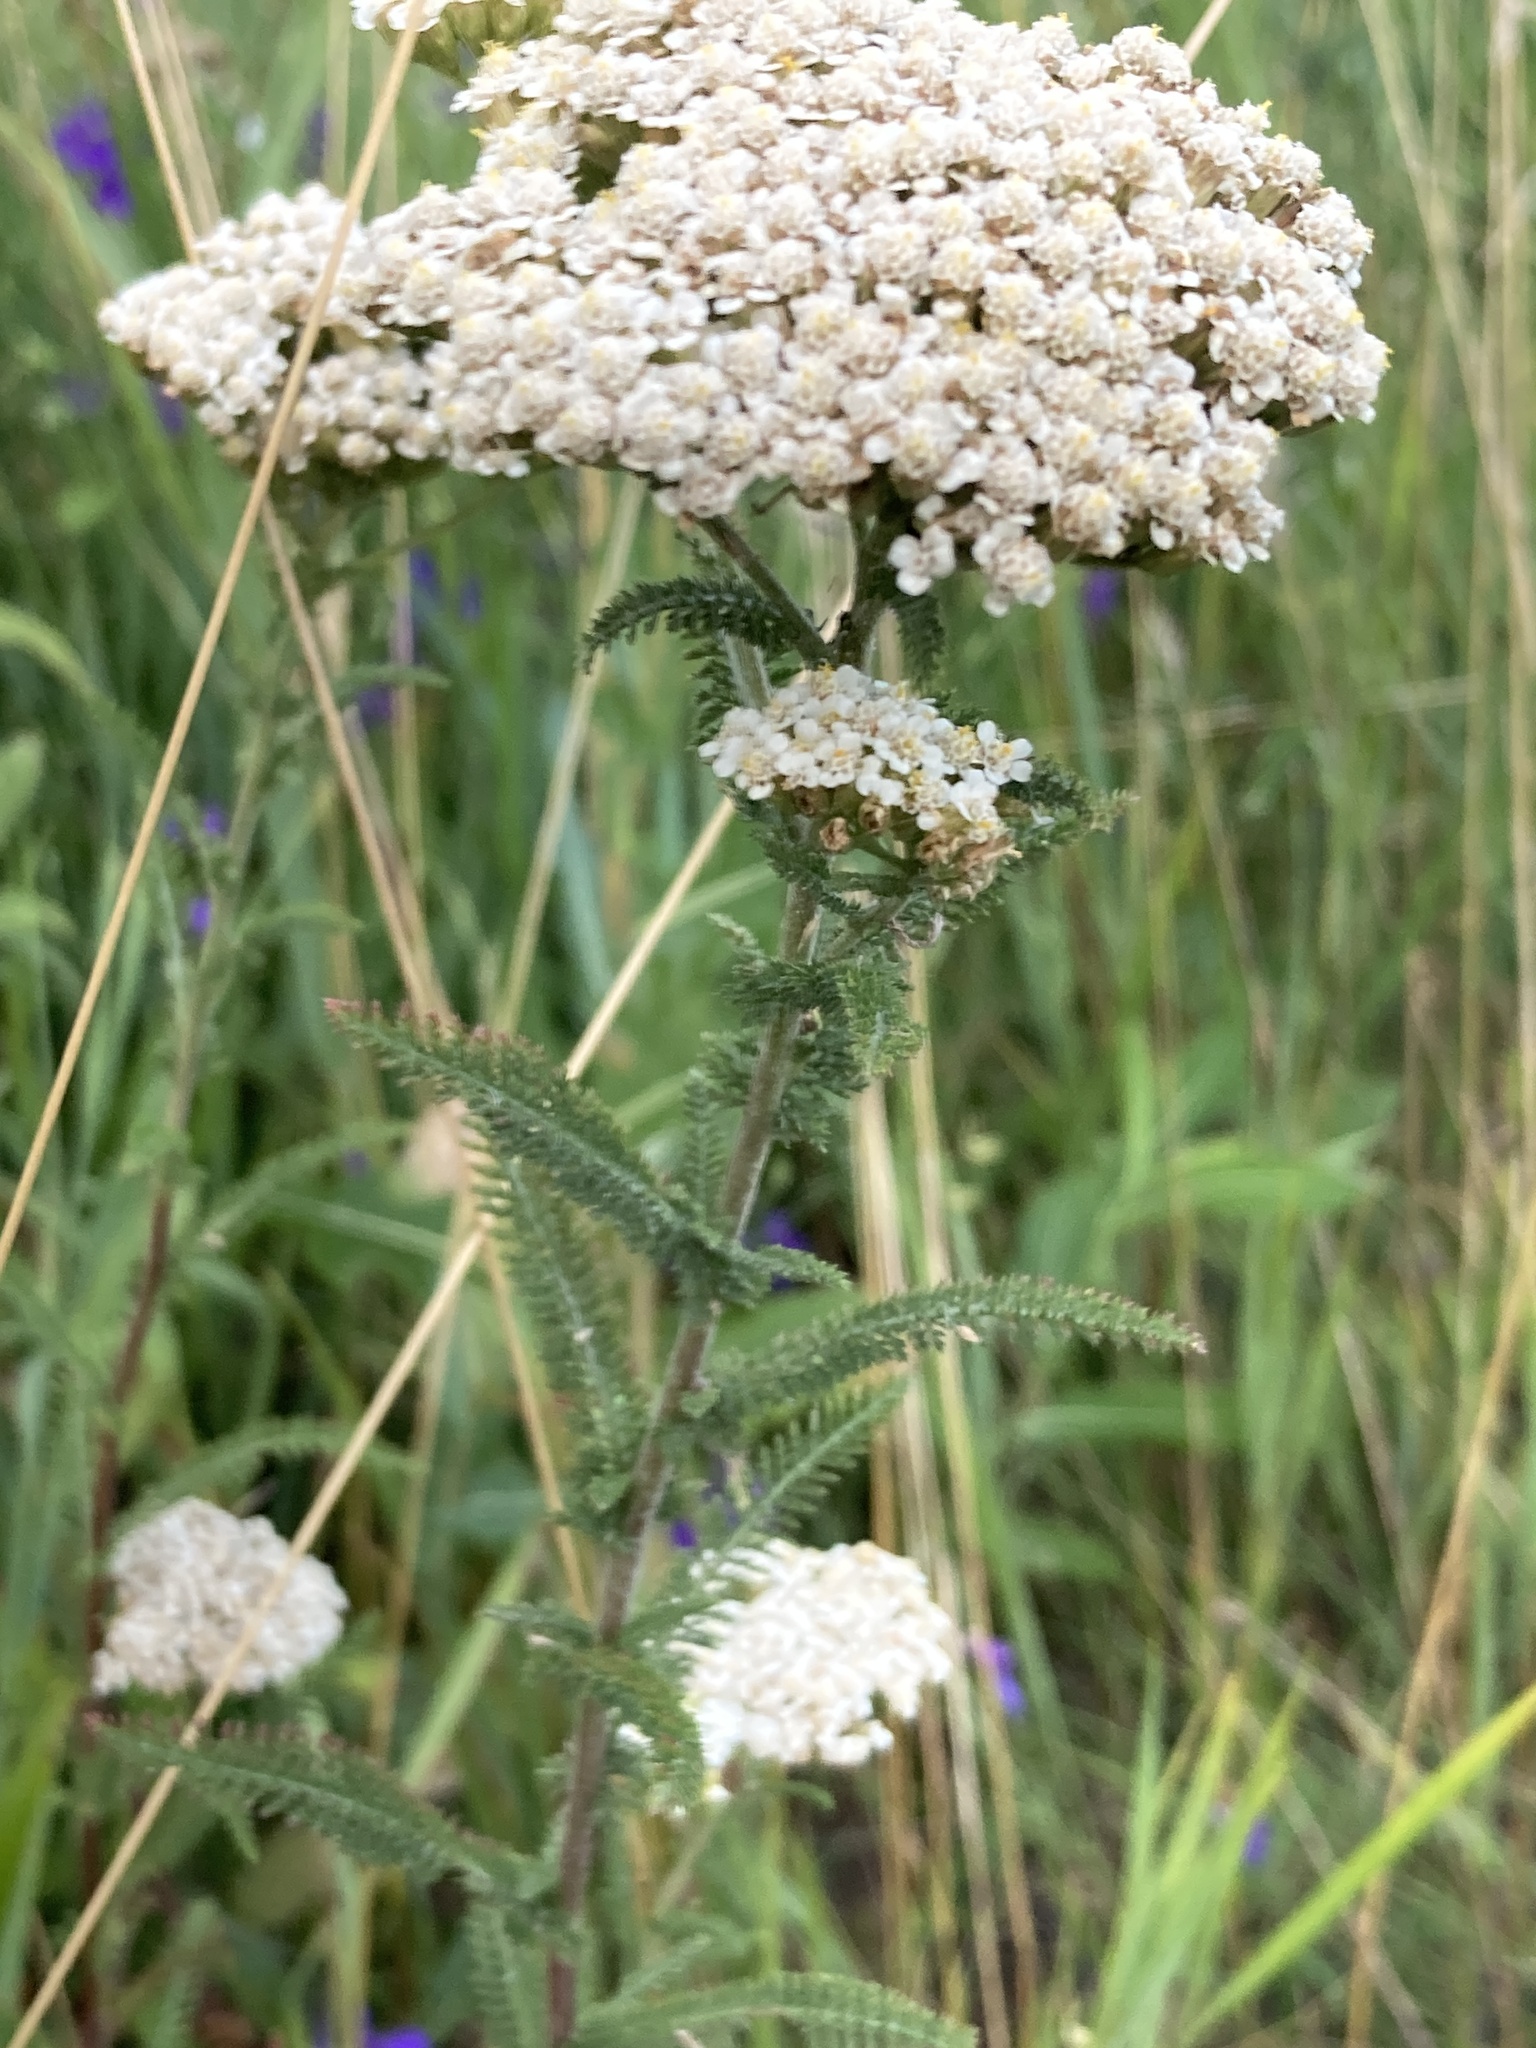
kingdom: Plantae
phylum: Tracheophyta
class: Magnoliopsida
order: Asterales
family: Asteraceae
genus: Achillea
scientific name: Achillea setacea
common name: Bristly yarrow
